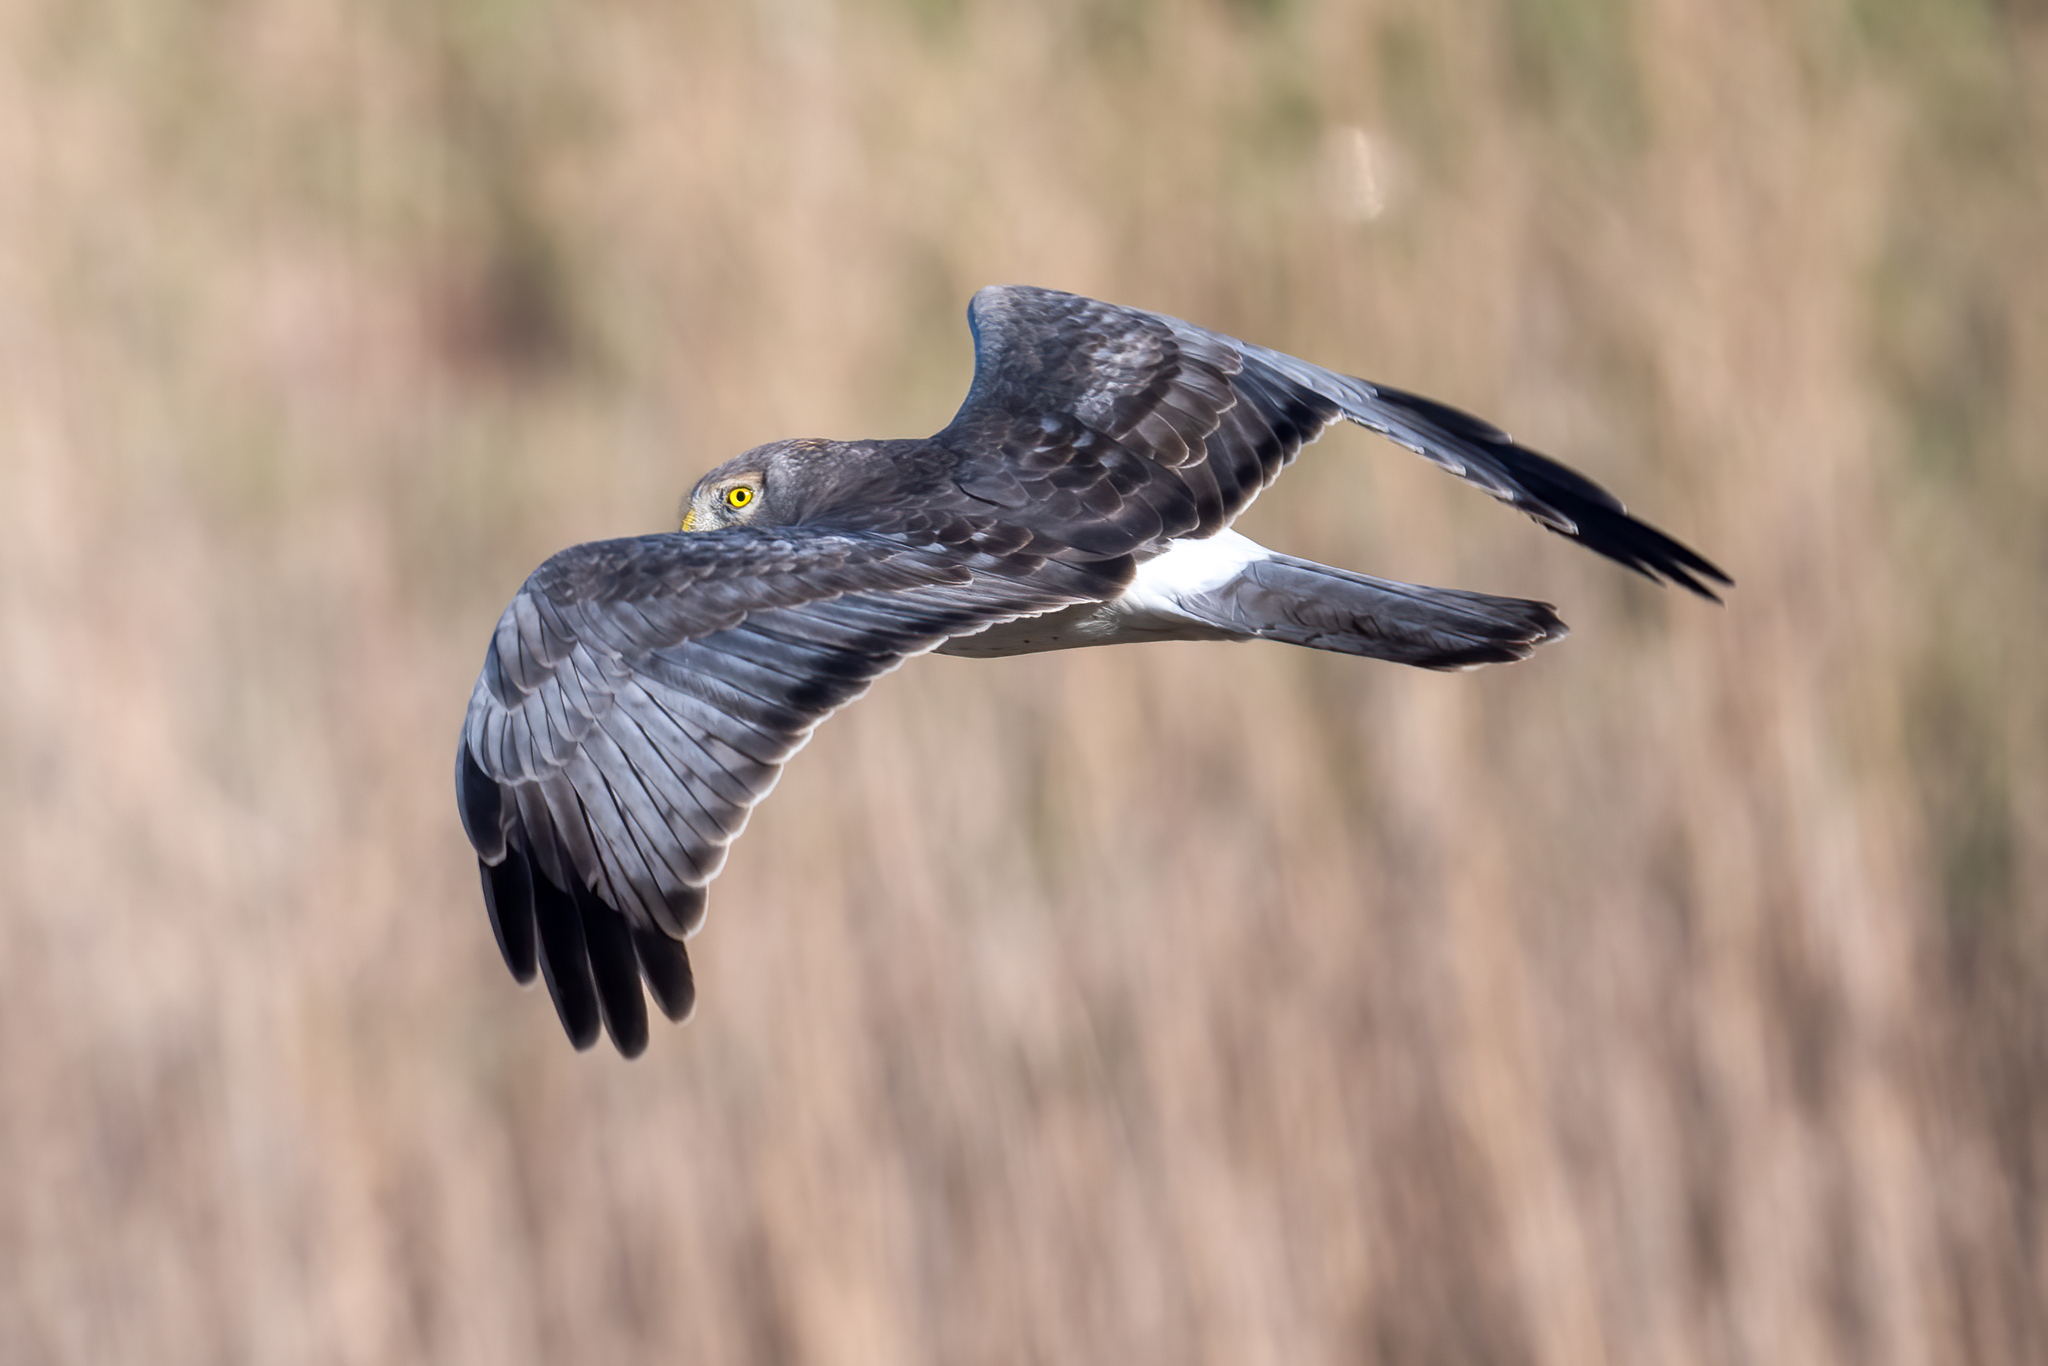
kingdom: Animalia
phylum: Chordata
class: Aves
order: Accipitriformes
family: Accipitridae
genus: Circus
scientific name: Circus cyaneus
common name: Hen harrier
